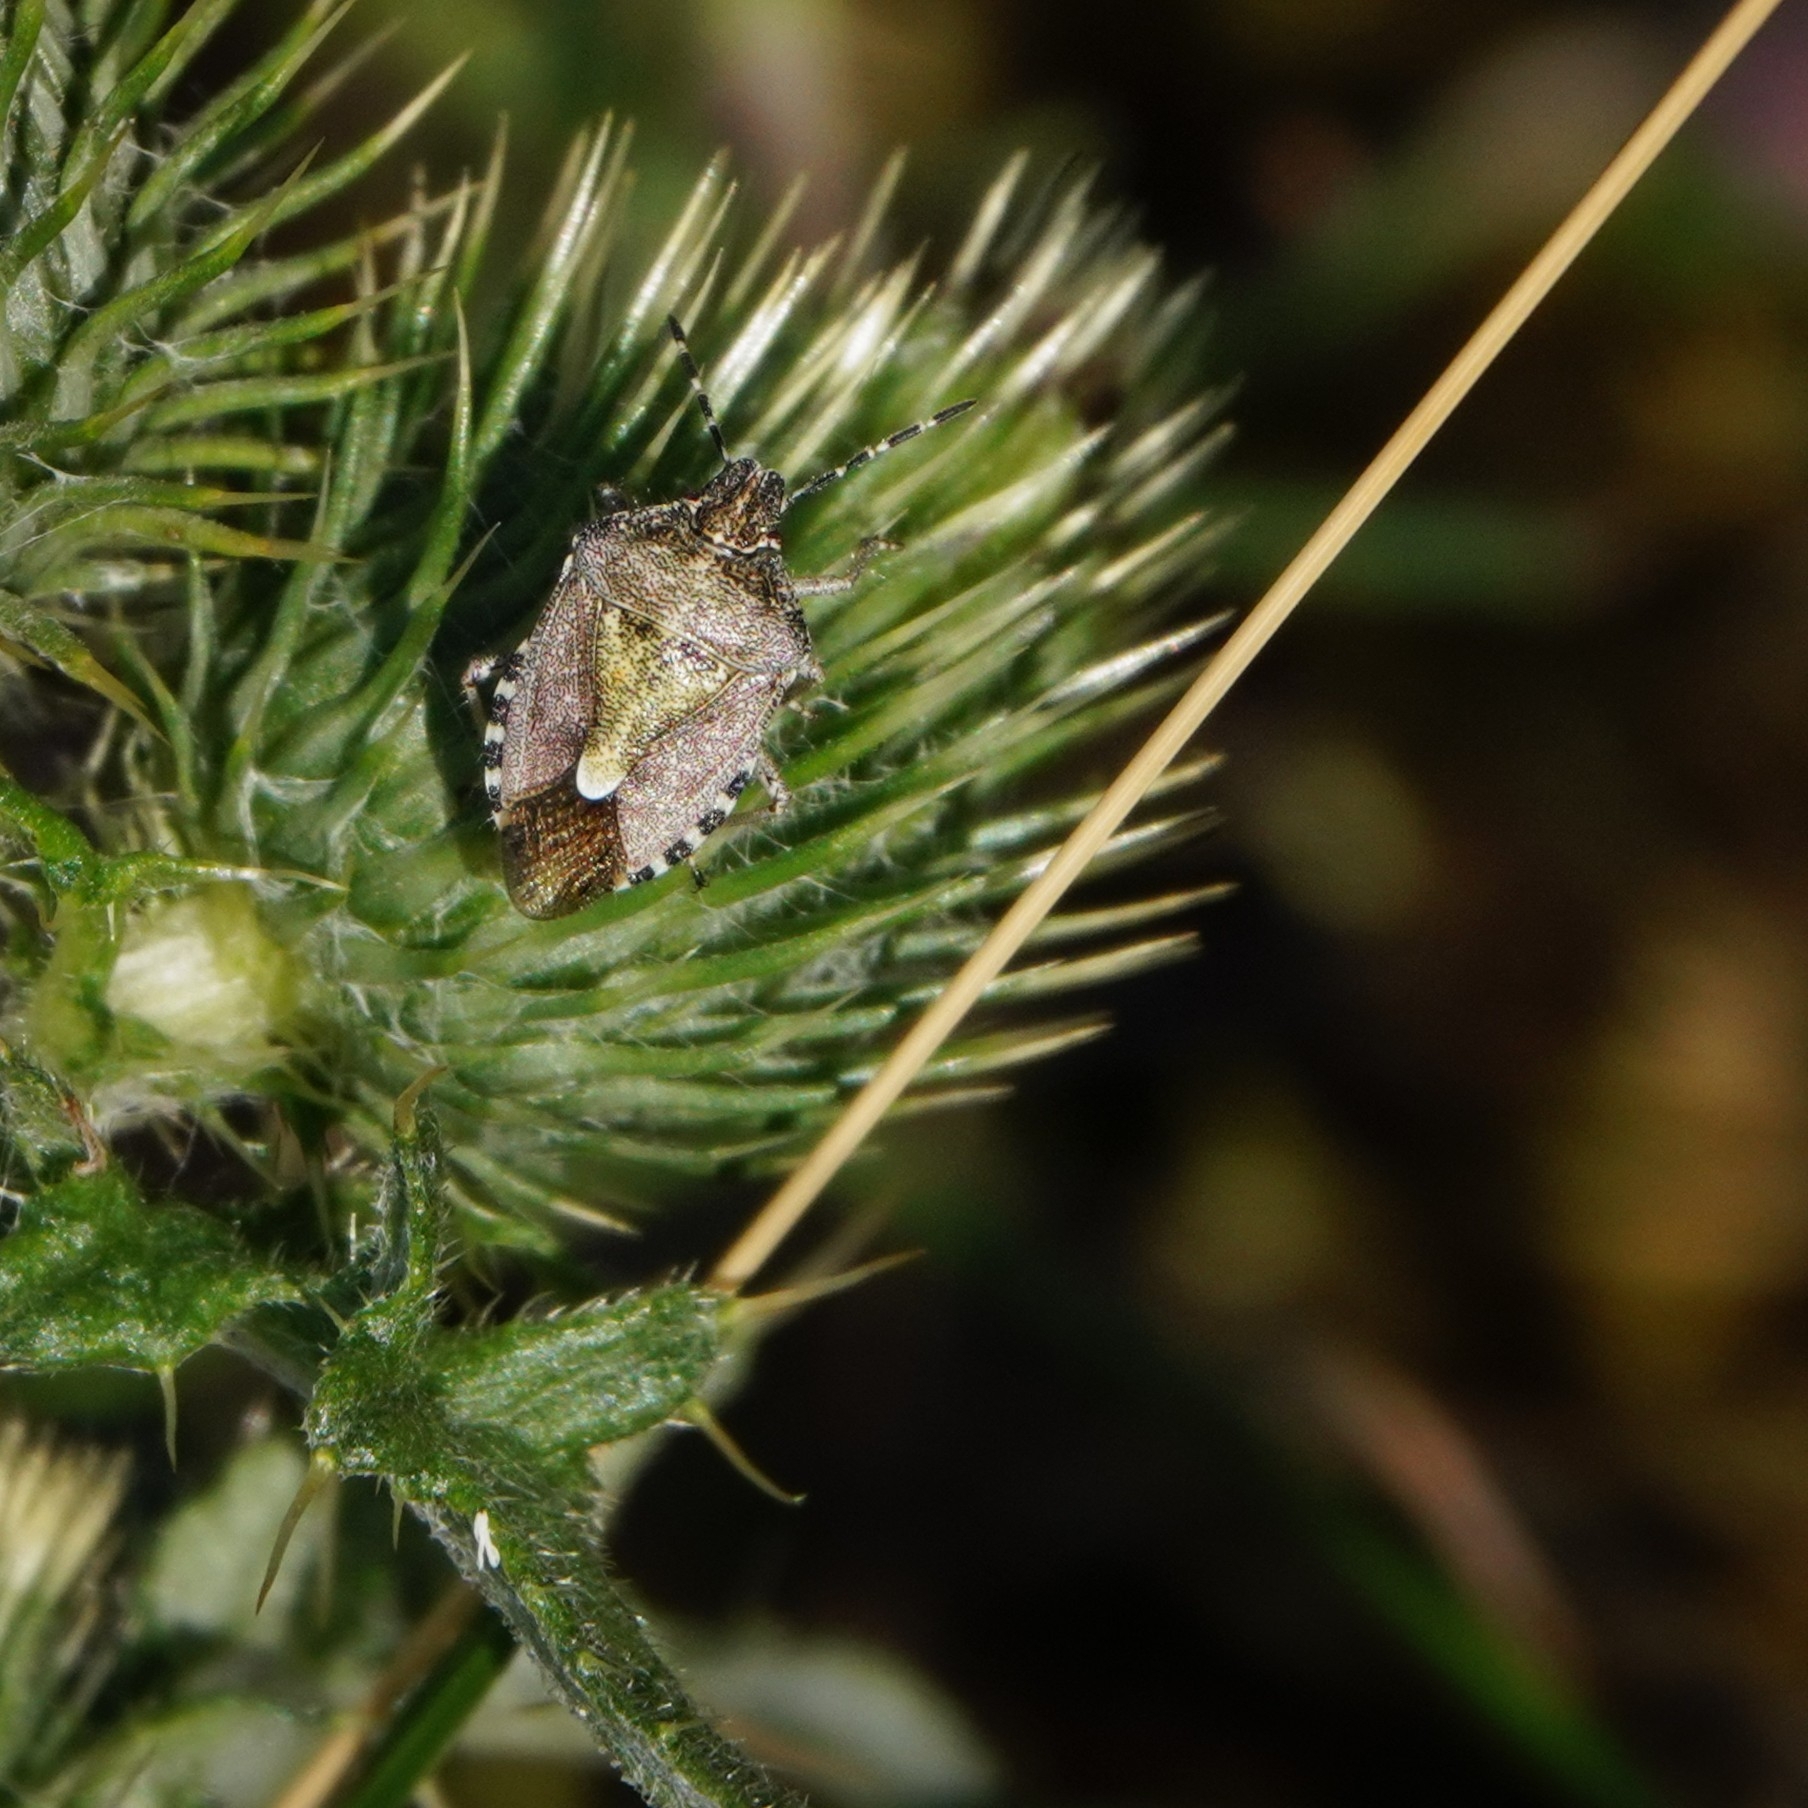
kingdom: Animalia
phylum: Arthropoda
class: Insecta
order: Hemiptera
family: Pentatomidae
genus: Dolycoris
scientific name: Dolycoris baccarum
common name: Sloe bug
